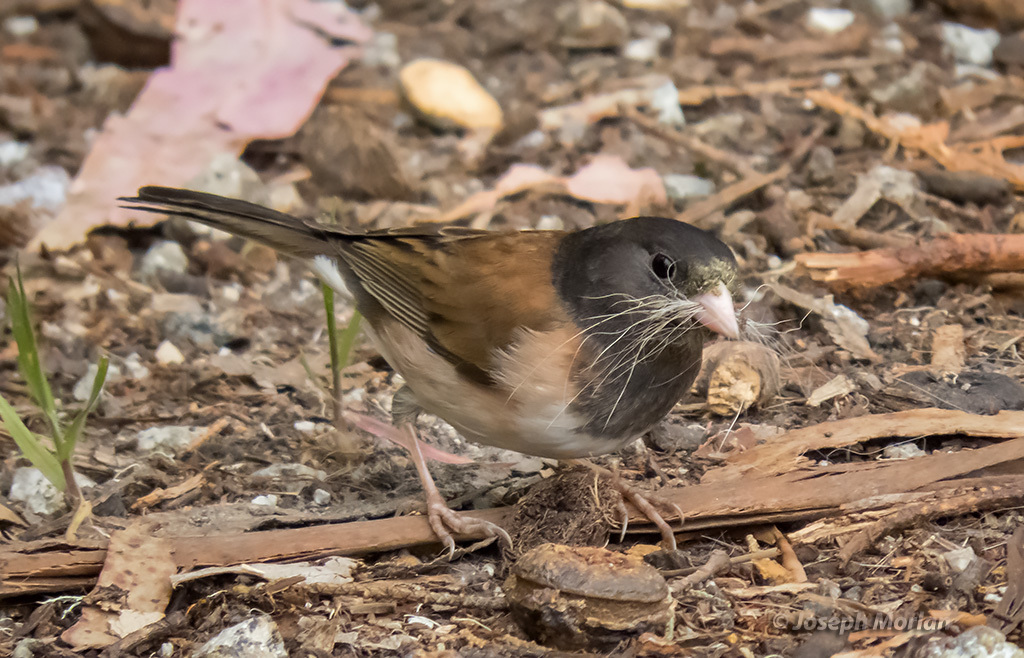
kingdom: Animalia
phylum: Chordata
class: Aves
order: Passeriformes
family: Passerellidae
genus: Junco
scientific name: Junco hyemalis
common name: Dark-eyed junco
